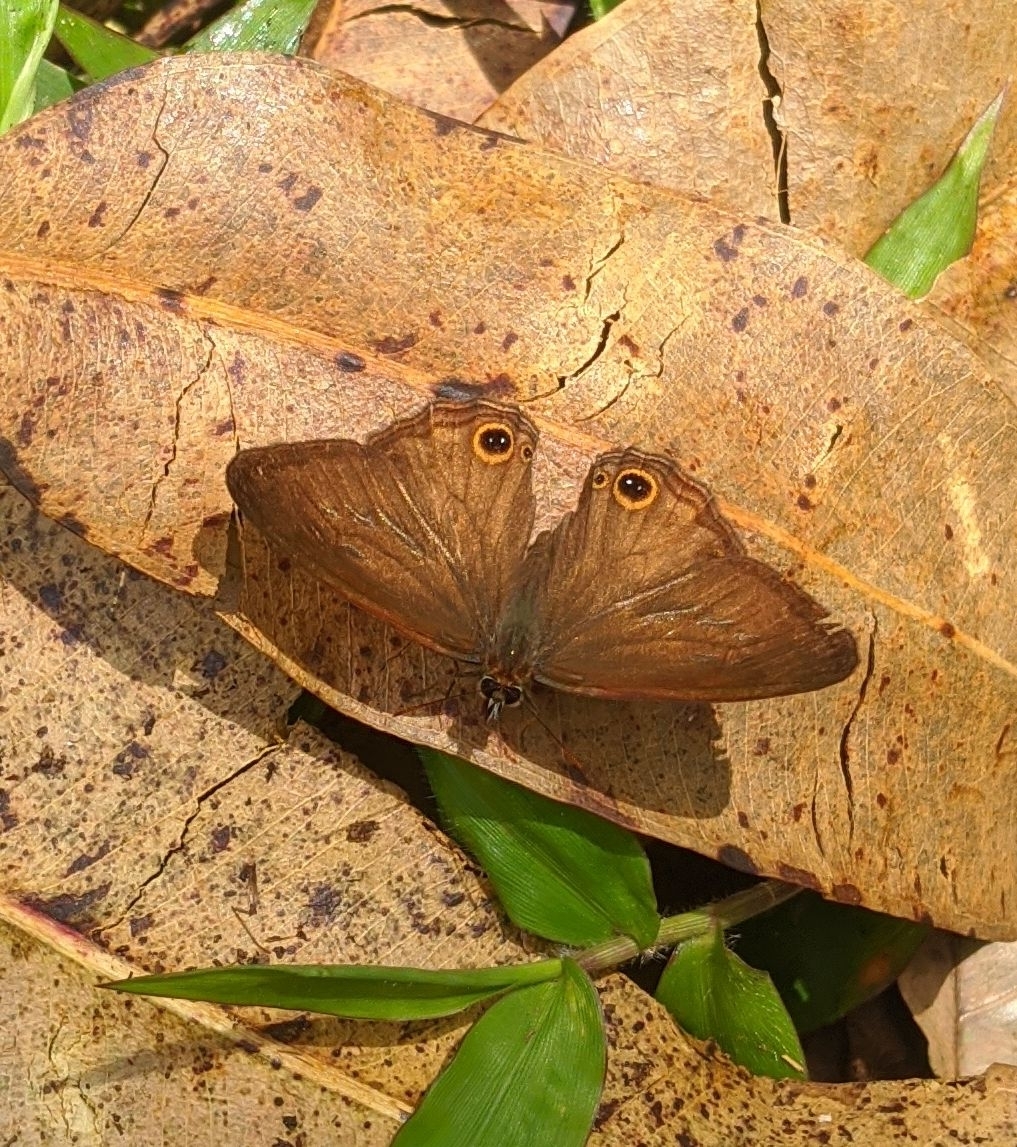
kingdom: Animalia
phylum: Arthropoda
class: Insecta
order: Lepidoptera
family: Nymphalidae
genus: Graphita
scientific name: Graphita griphe
